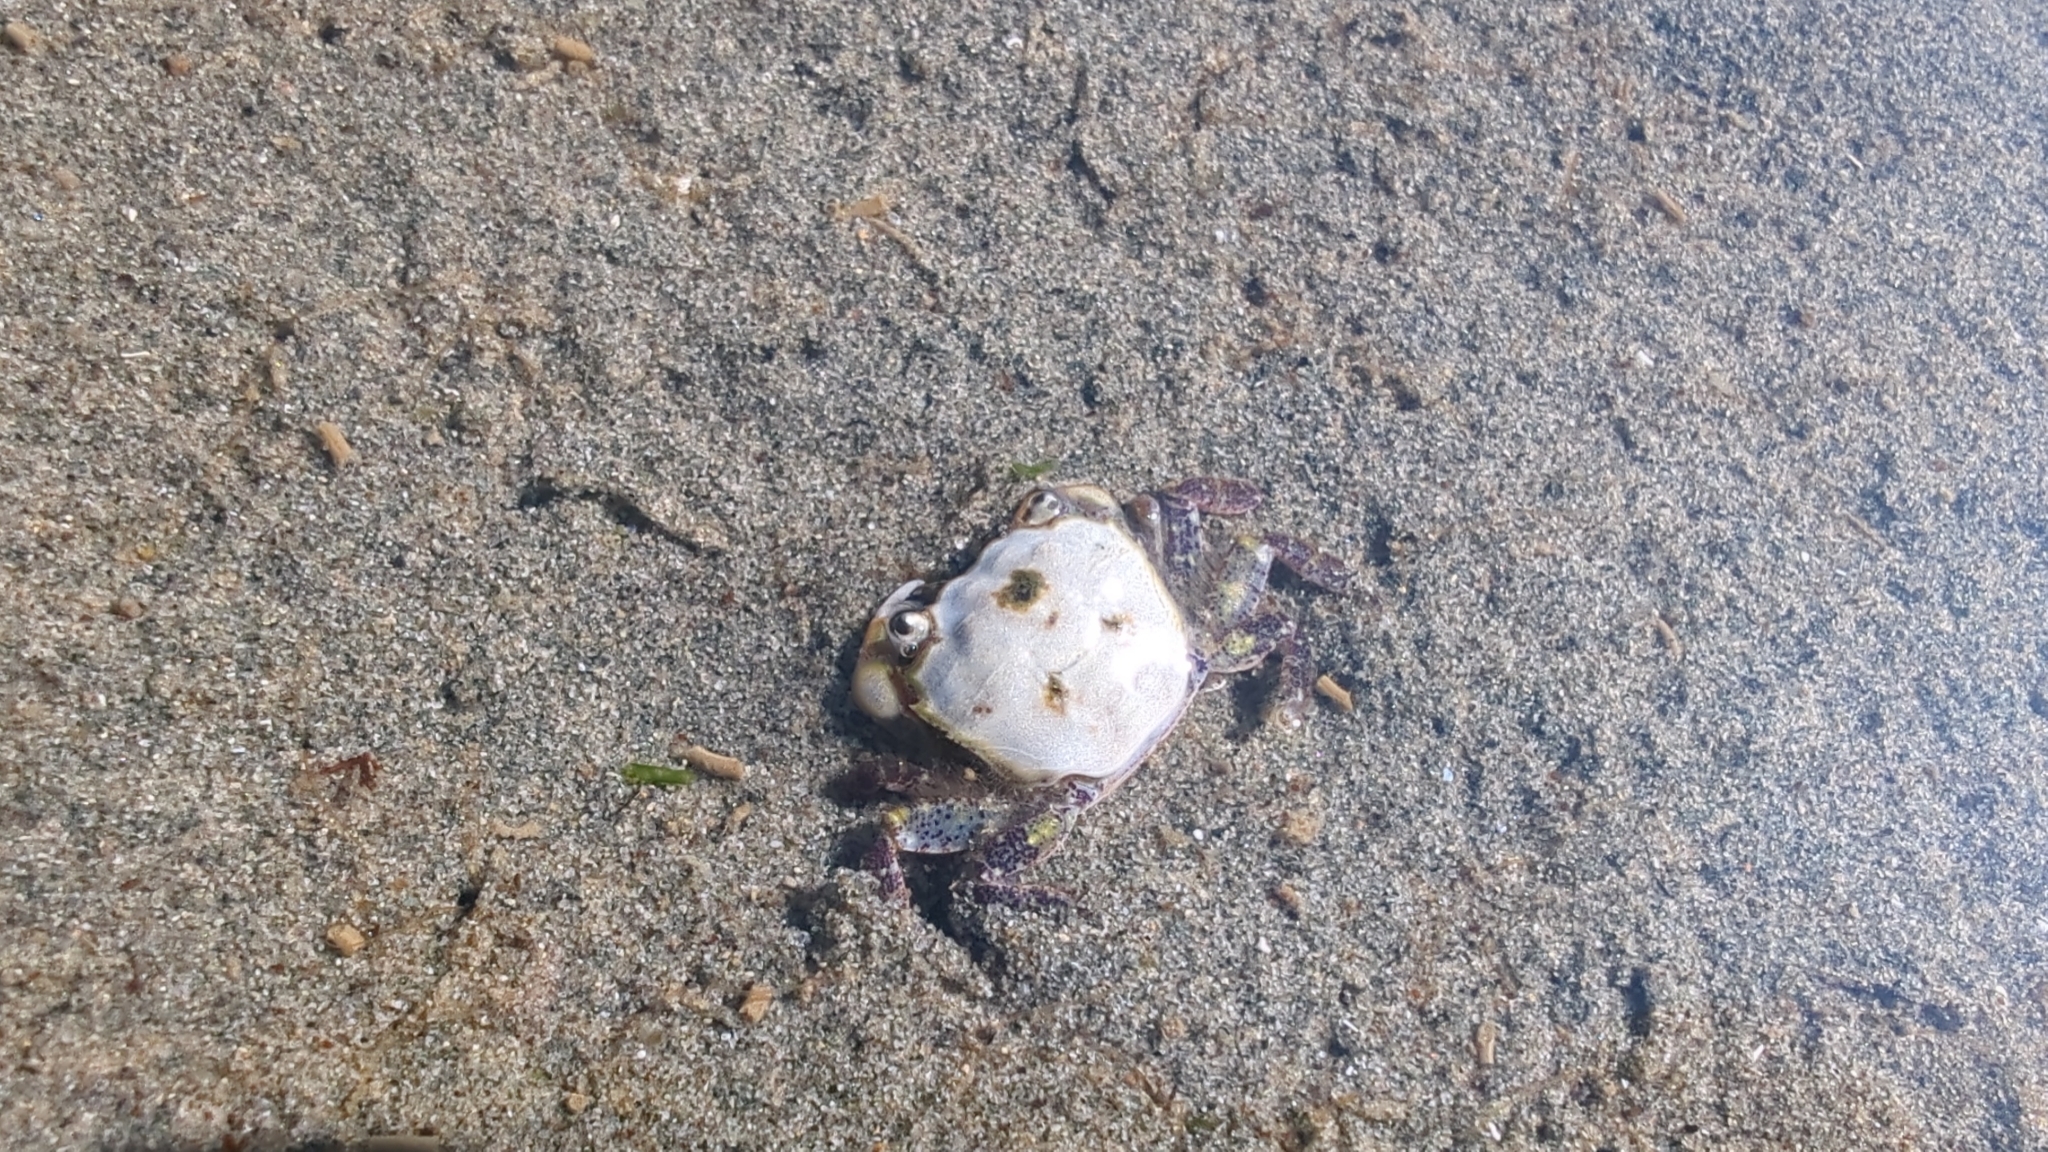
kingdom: Animalia
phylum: Arthropoda
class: Malacostraca
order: Decapoda
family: Varunidae
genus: Hemigrapsus
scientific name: Hemigrapsus oregonensis
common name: Yellow shore crab
